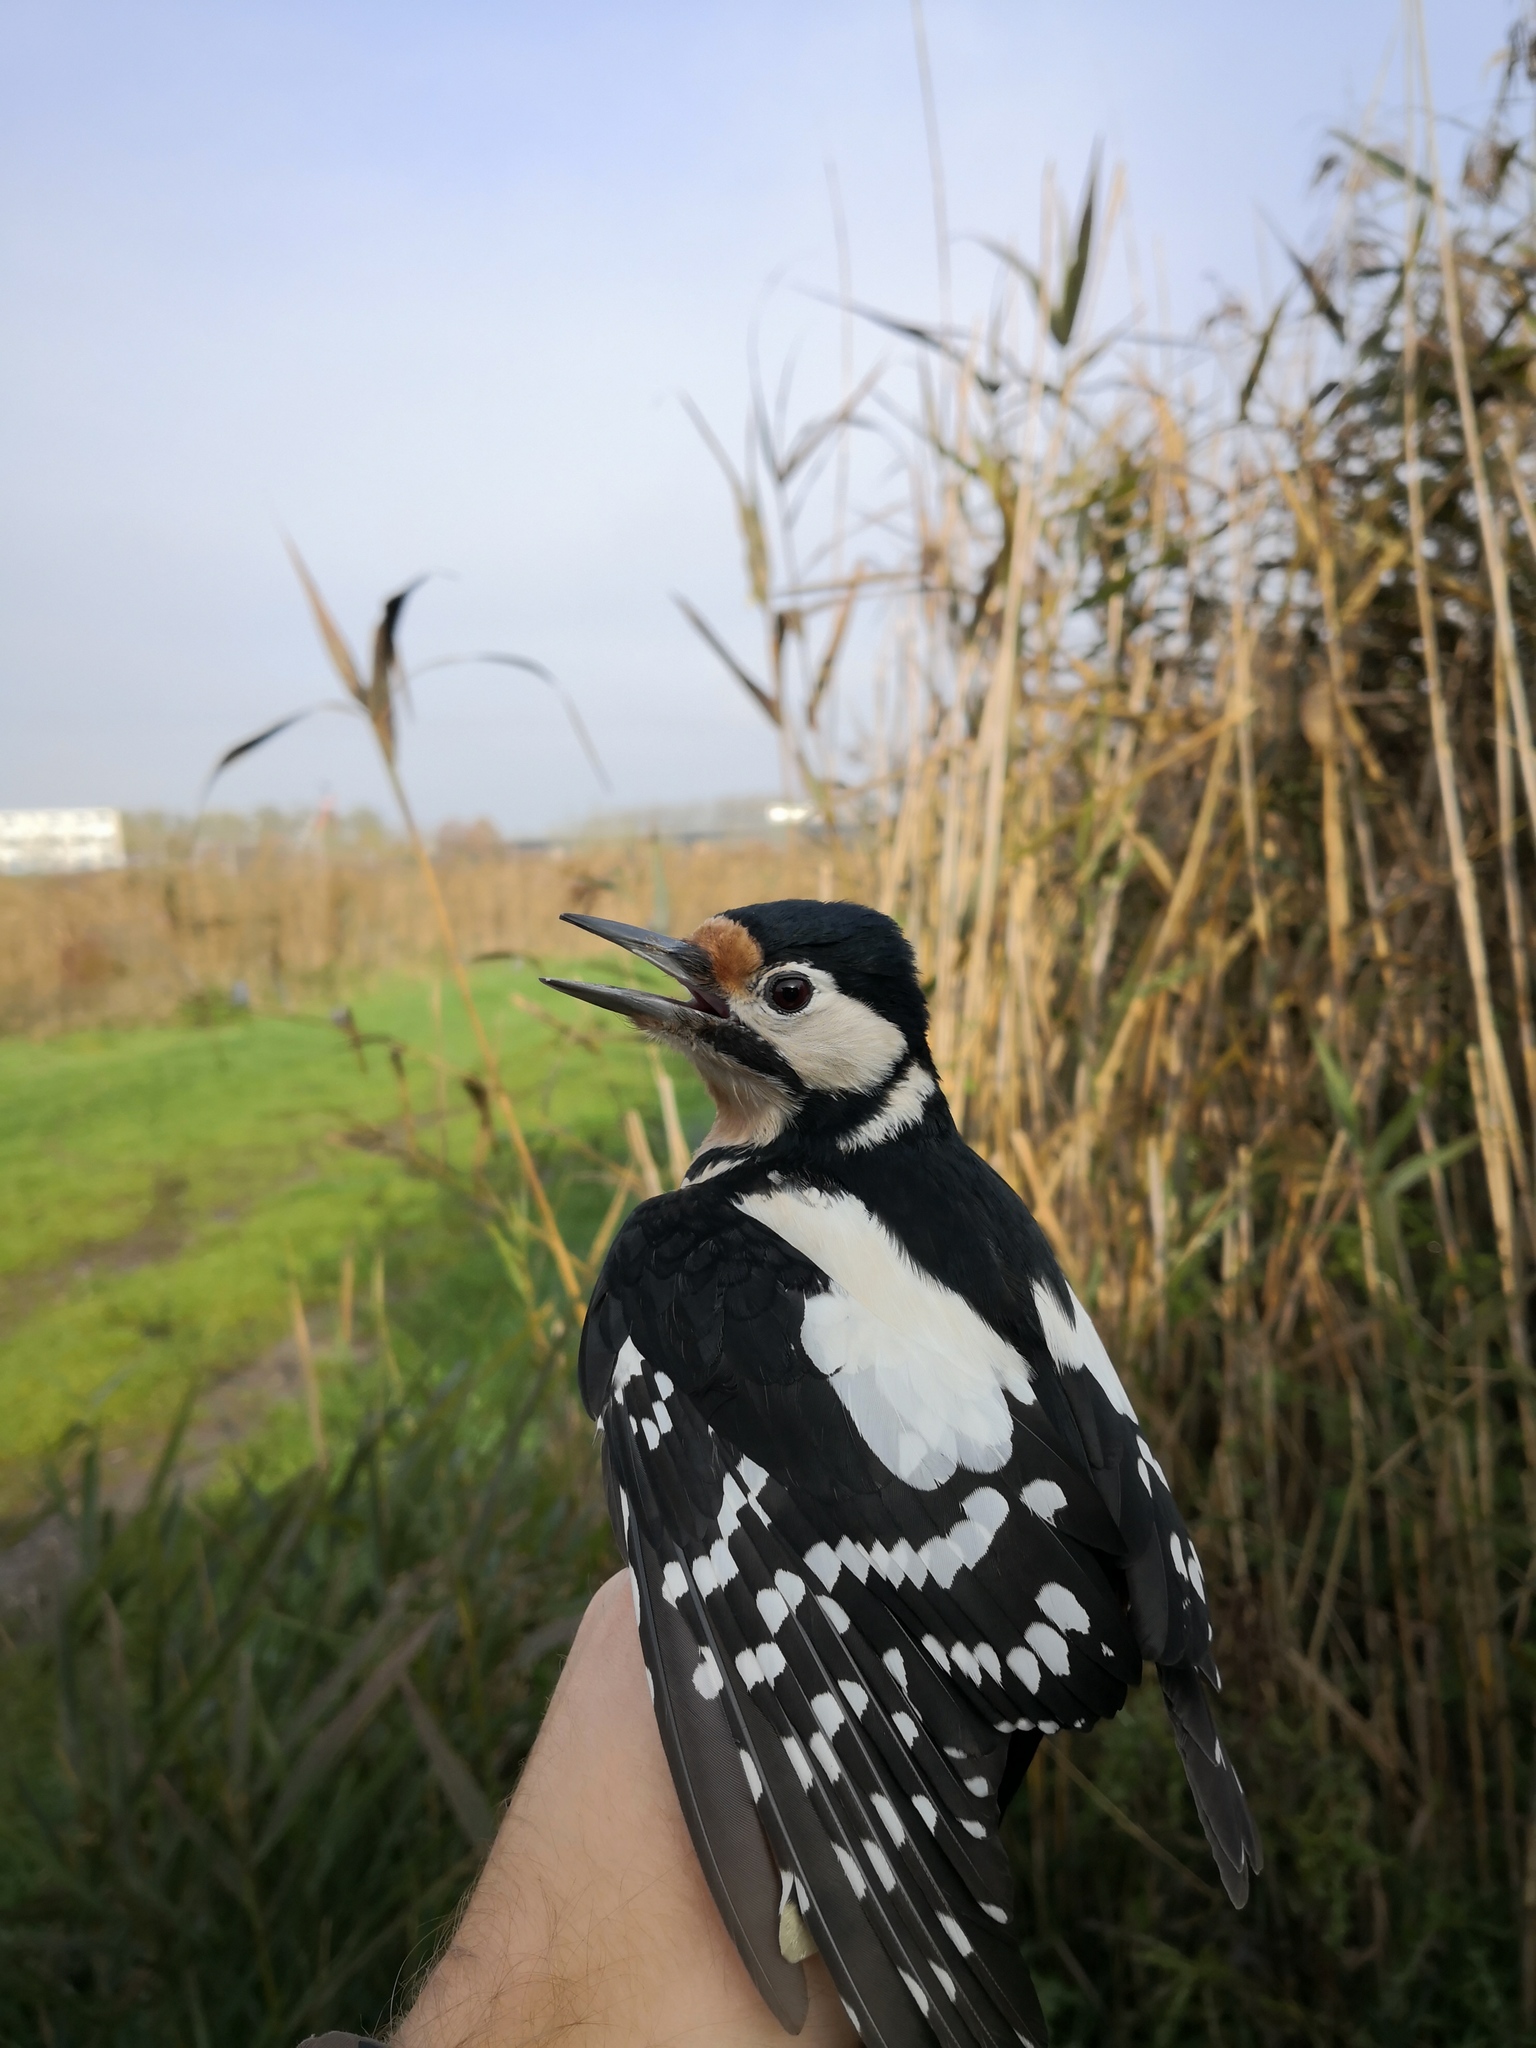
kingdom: Animalia
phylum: Chordata
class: Aves
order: Piciformes
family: Picidae
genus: Dendrocopos
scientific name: Dendrocopos major
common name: Great spotted woodpecker
